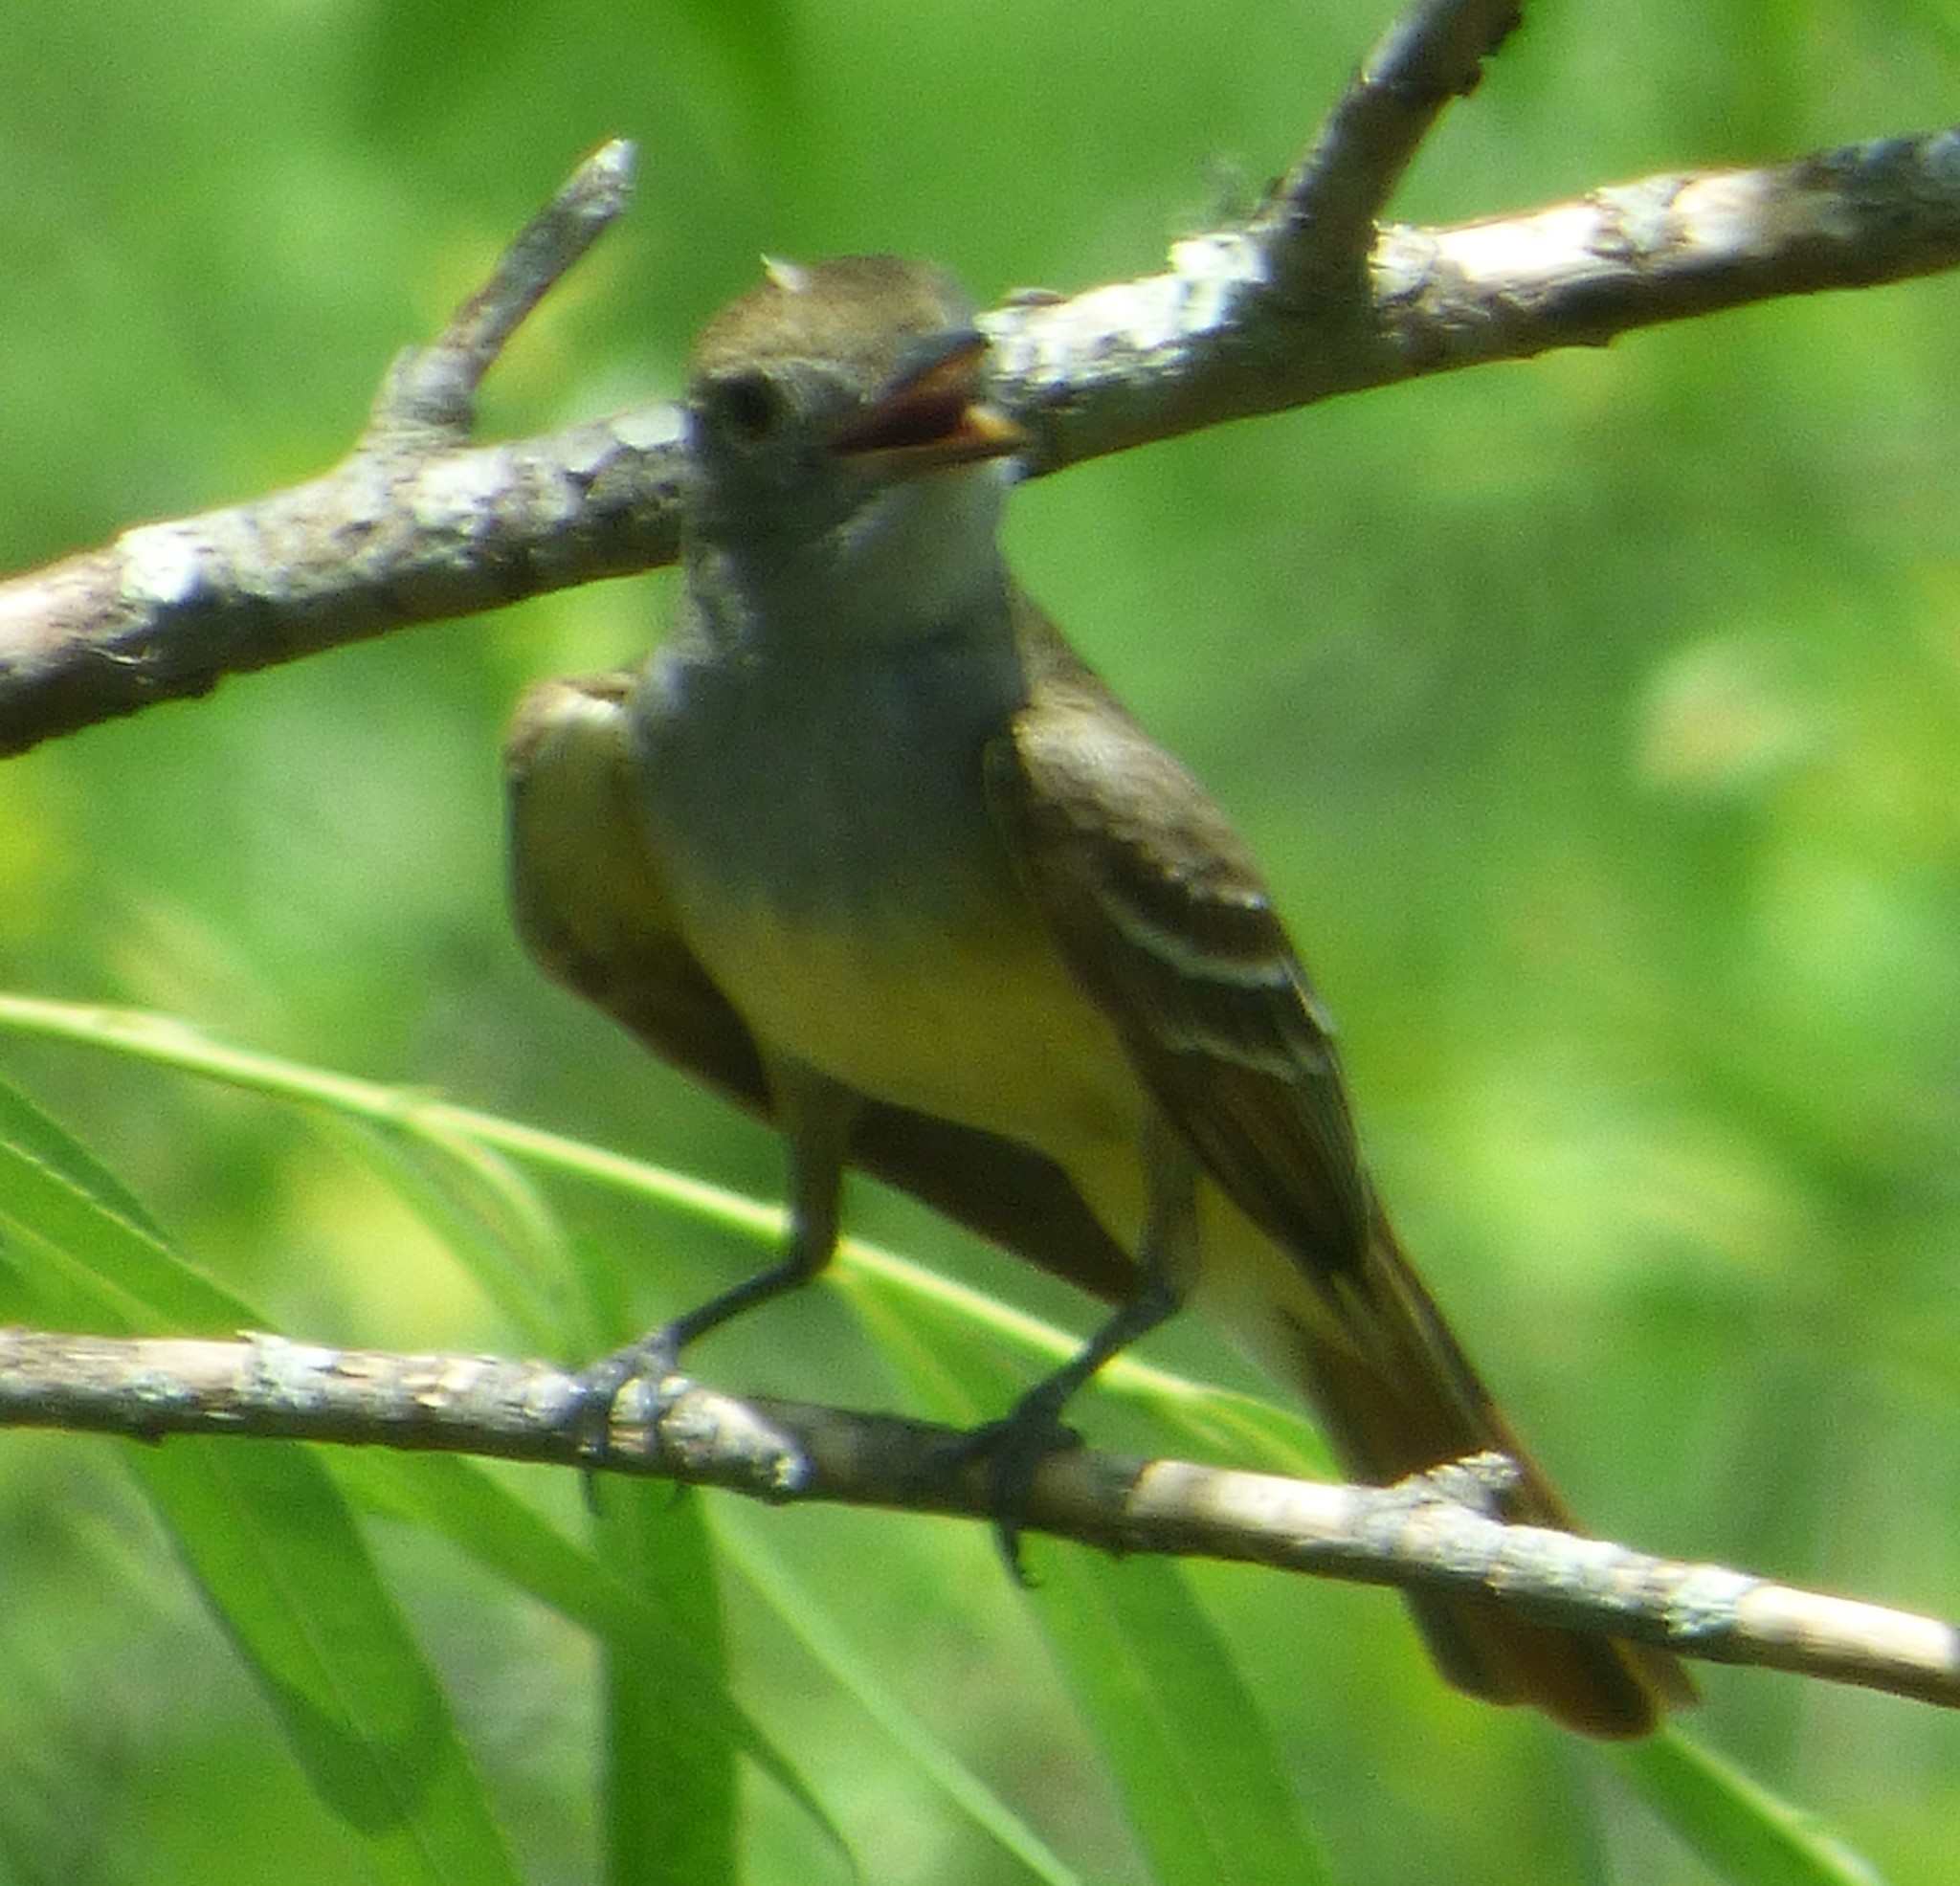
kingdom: Animalia
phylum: Chordata
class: Aves
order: Passeriformes
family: Tyrannidae
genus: Myiarchus
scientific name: Myiarchus crinitus
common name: Great crested flycatcher
